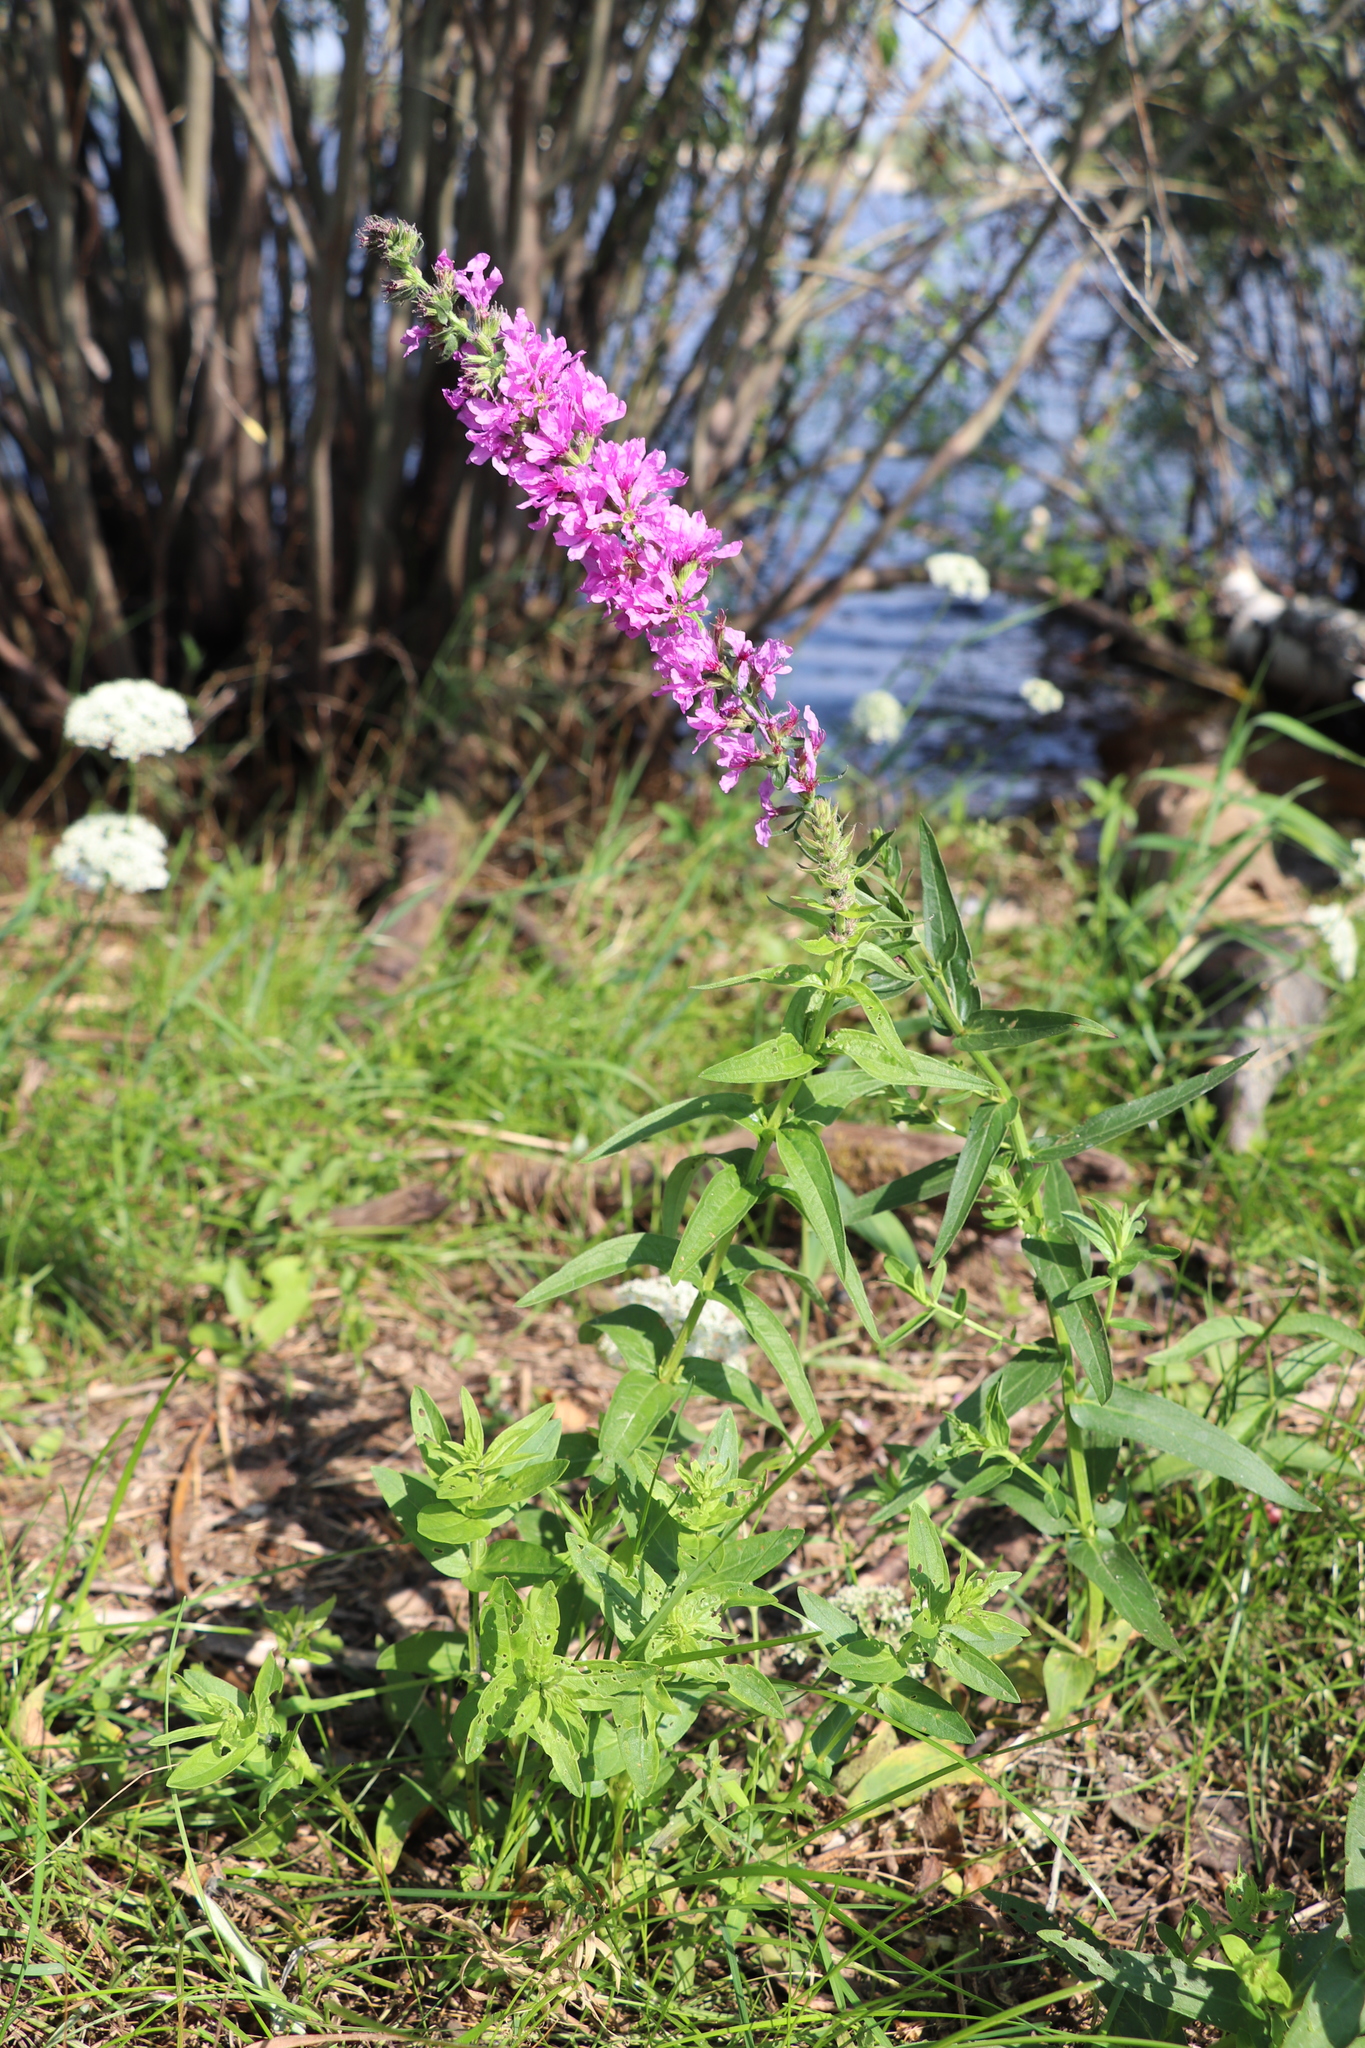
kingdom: Plantae
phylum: Tracheophyta
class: Magnoliopsida
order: Myrtales
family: Lythraceae
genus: Lythrum
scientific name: Lythrum salicaria
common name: Purple loosestrife
